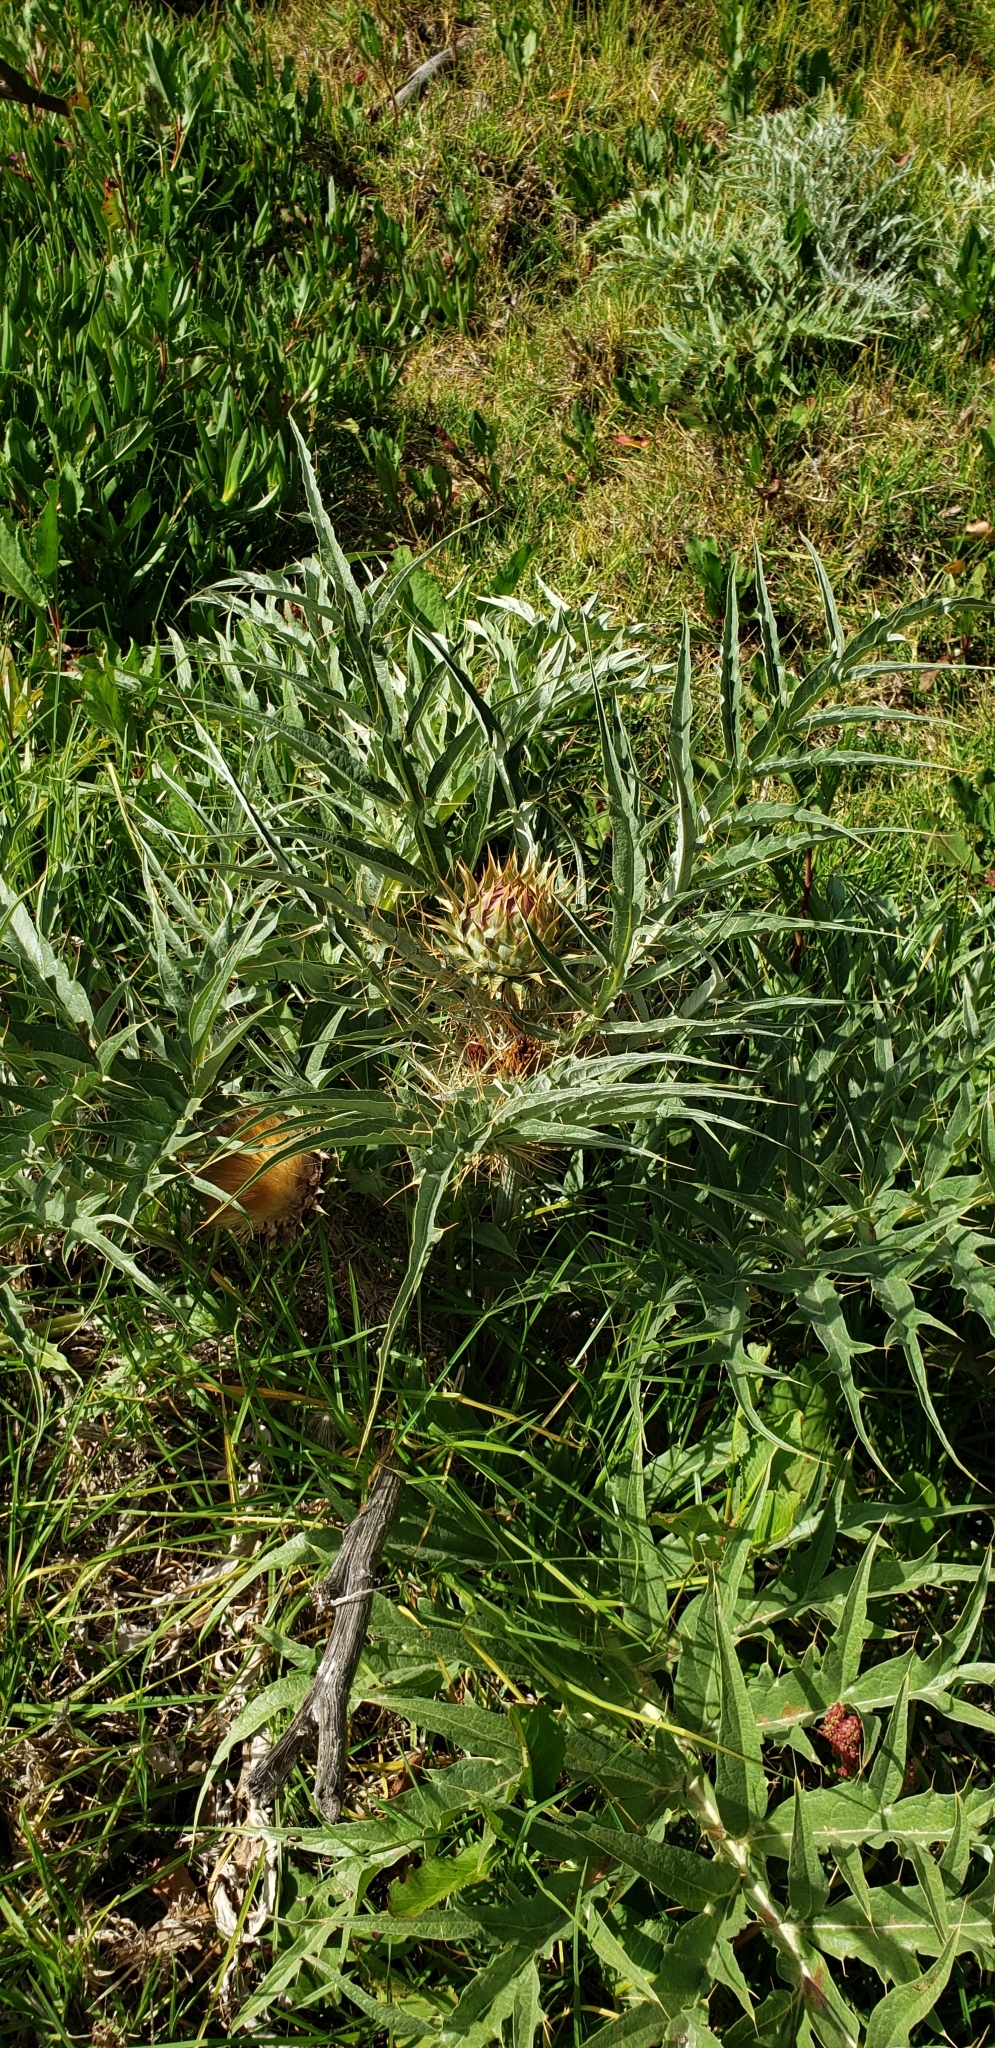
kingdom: Plantae
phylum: Tracheophyta
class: Magnoliopsida
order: Asterales
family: Asteraceae
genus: Cynara
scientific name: Cynara cardunculus
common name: Globe artichoke
